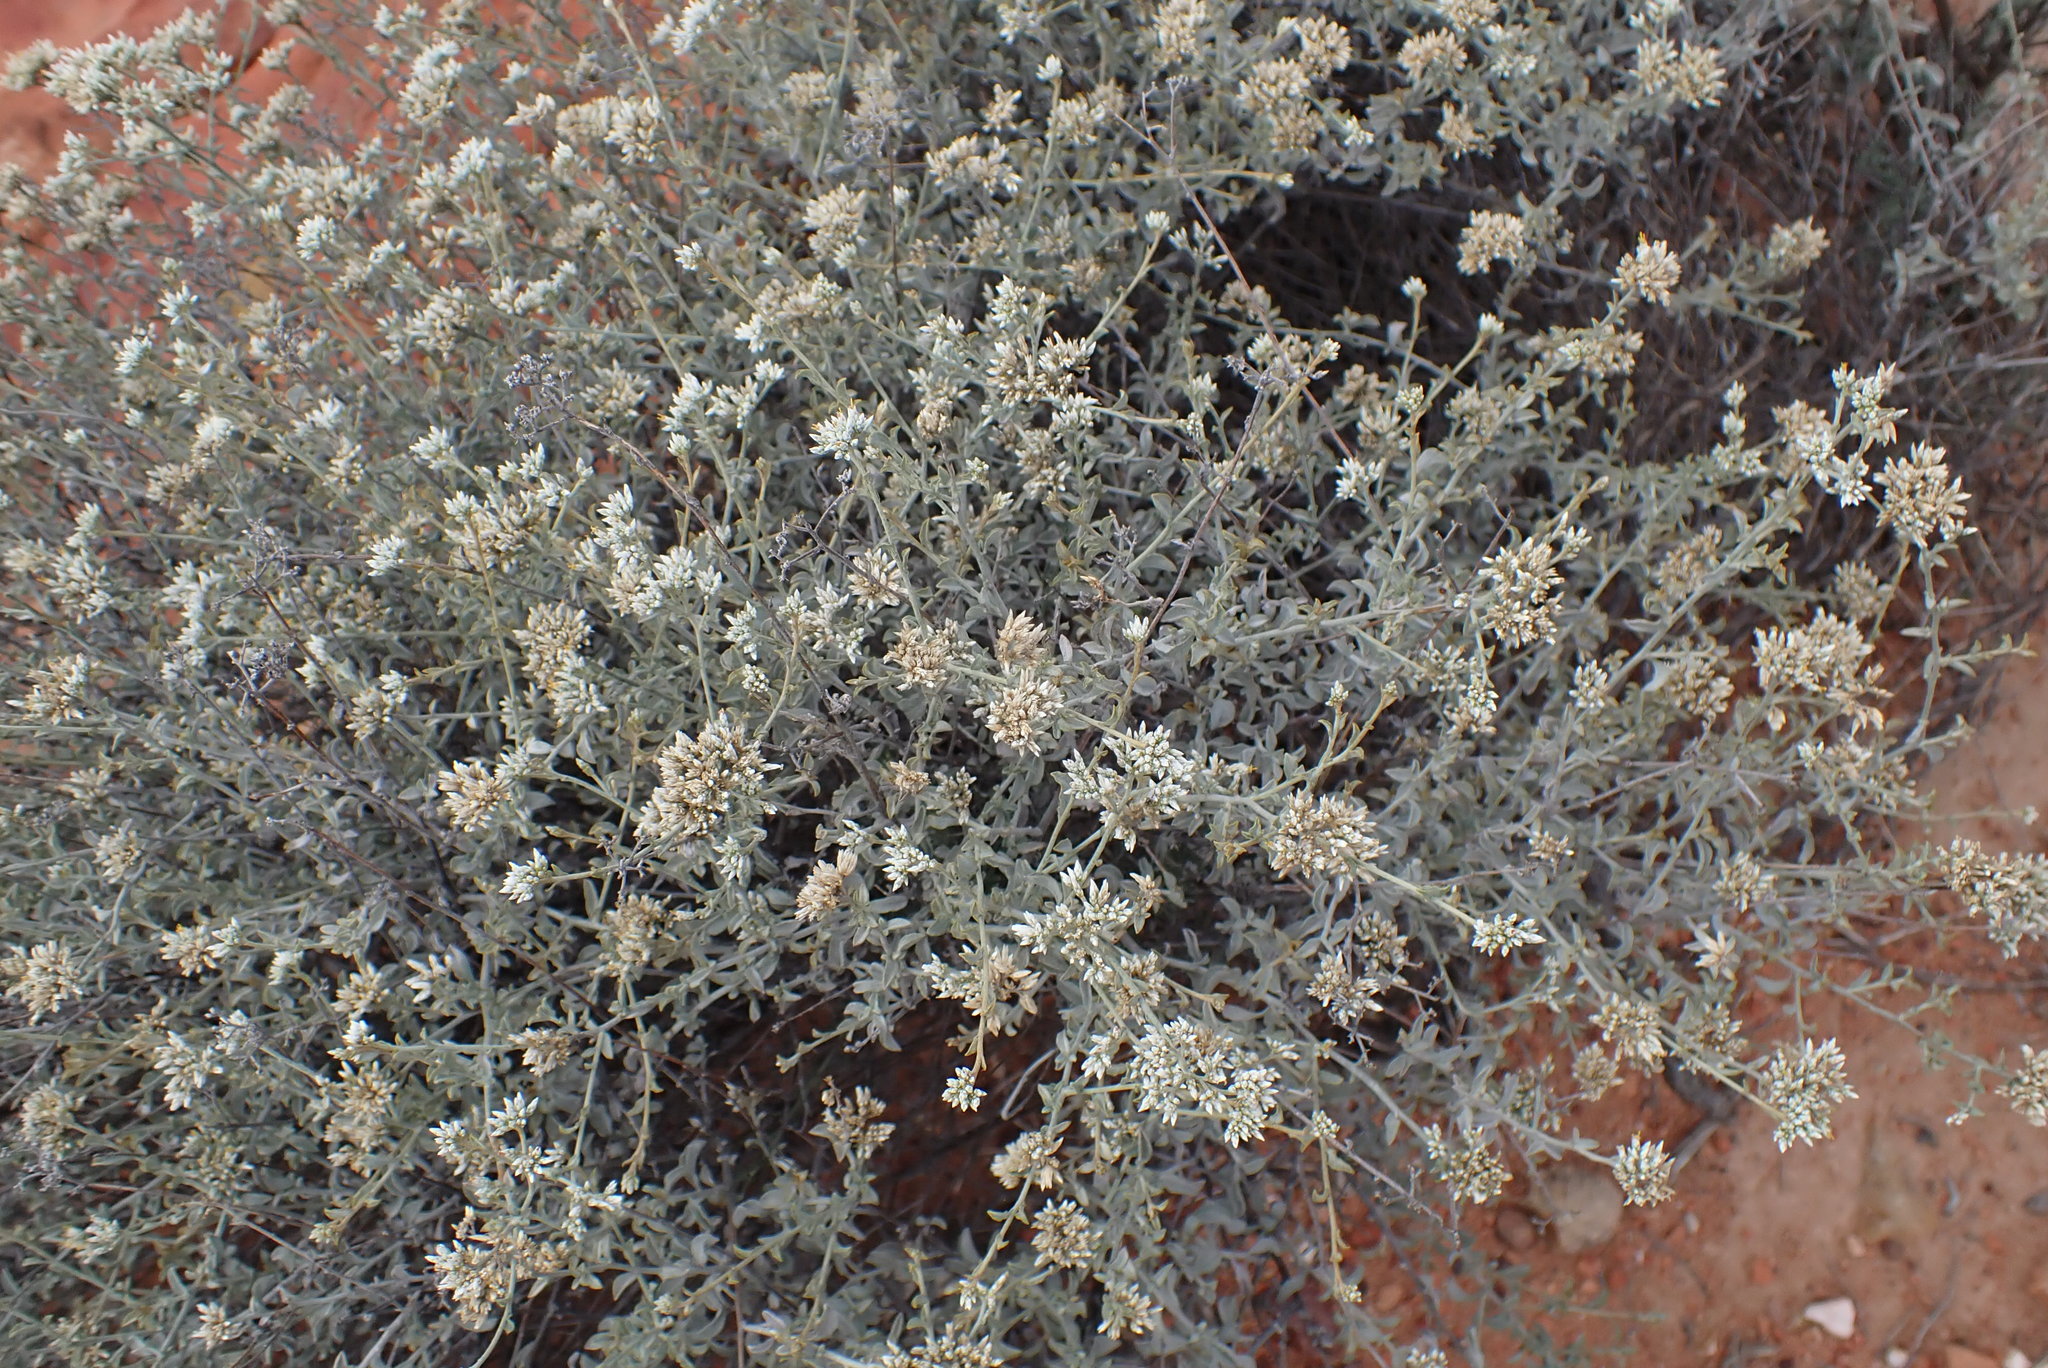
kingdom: Plantae
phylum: Tracheophyta
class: Magnoliopsida
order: Asterales
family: Asteraceae
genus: Helichrysum
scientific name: Helichrysum zeyheri
